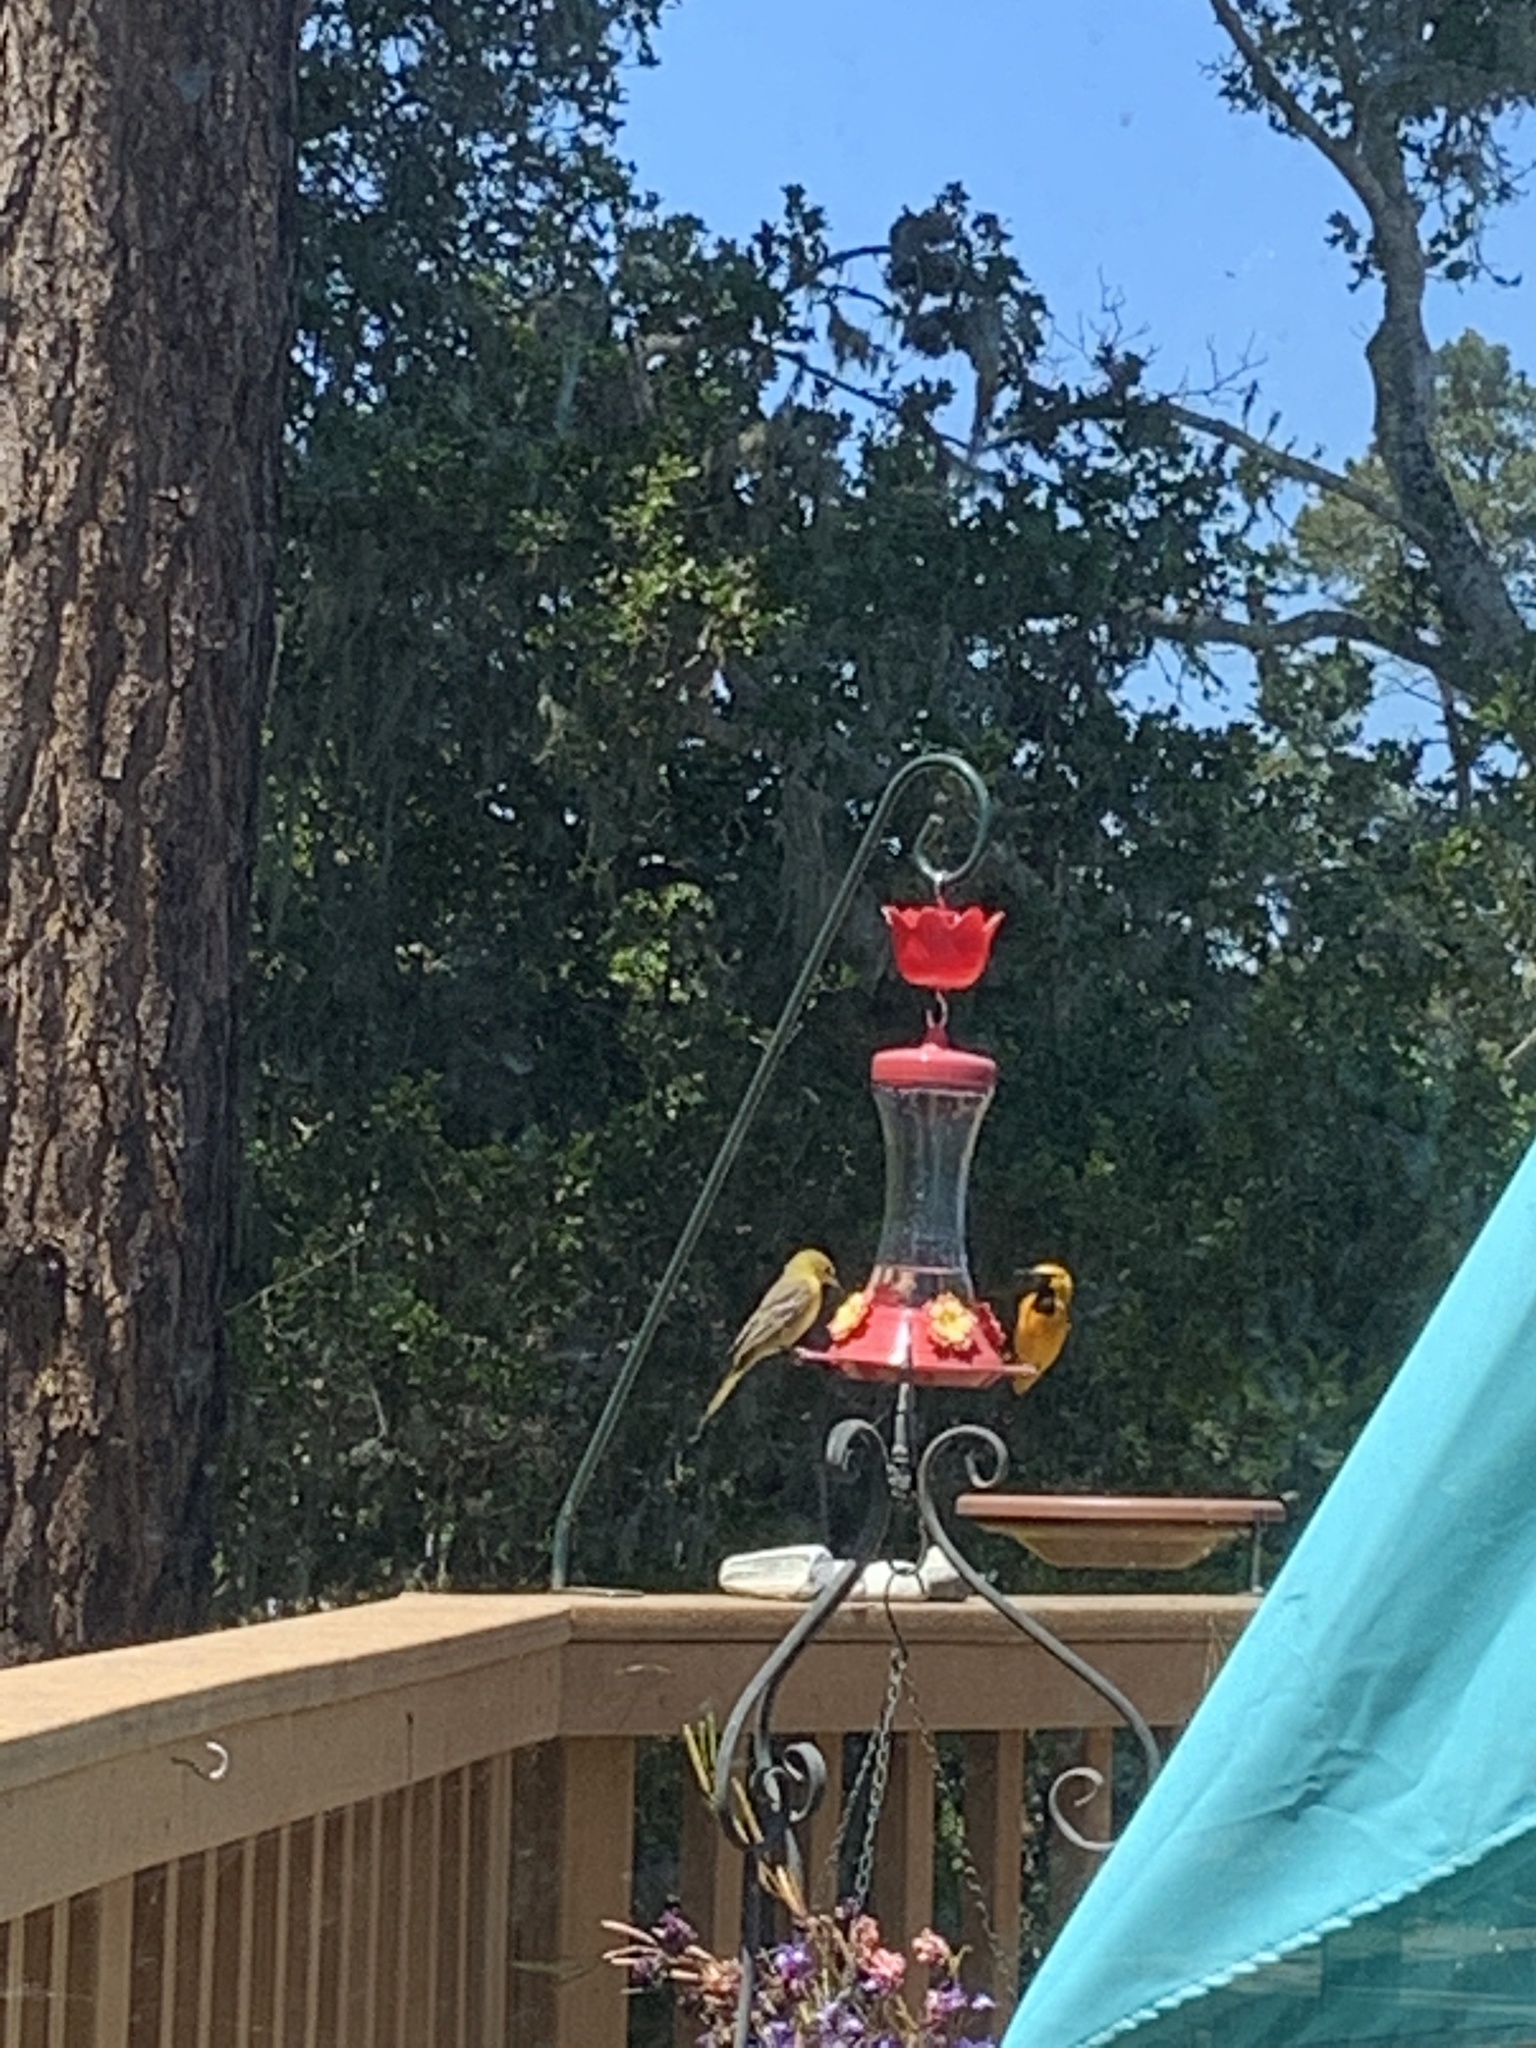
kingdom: Animalia
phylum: Chordata
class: Aves
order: Passeriformes
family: Icteridae
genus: Icterus
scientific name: Icterus cucullatus
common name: Hooded oriole
